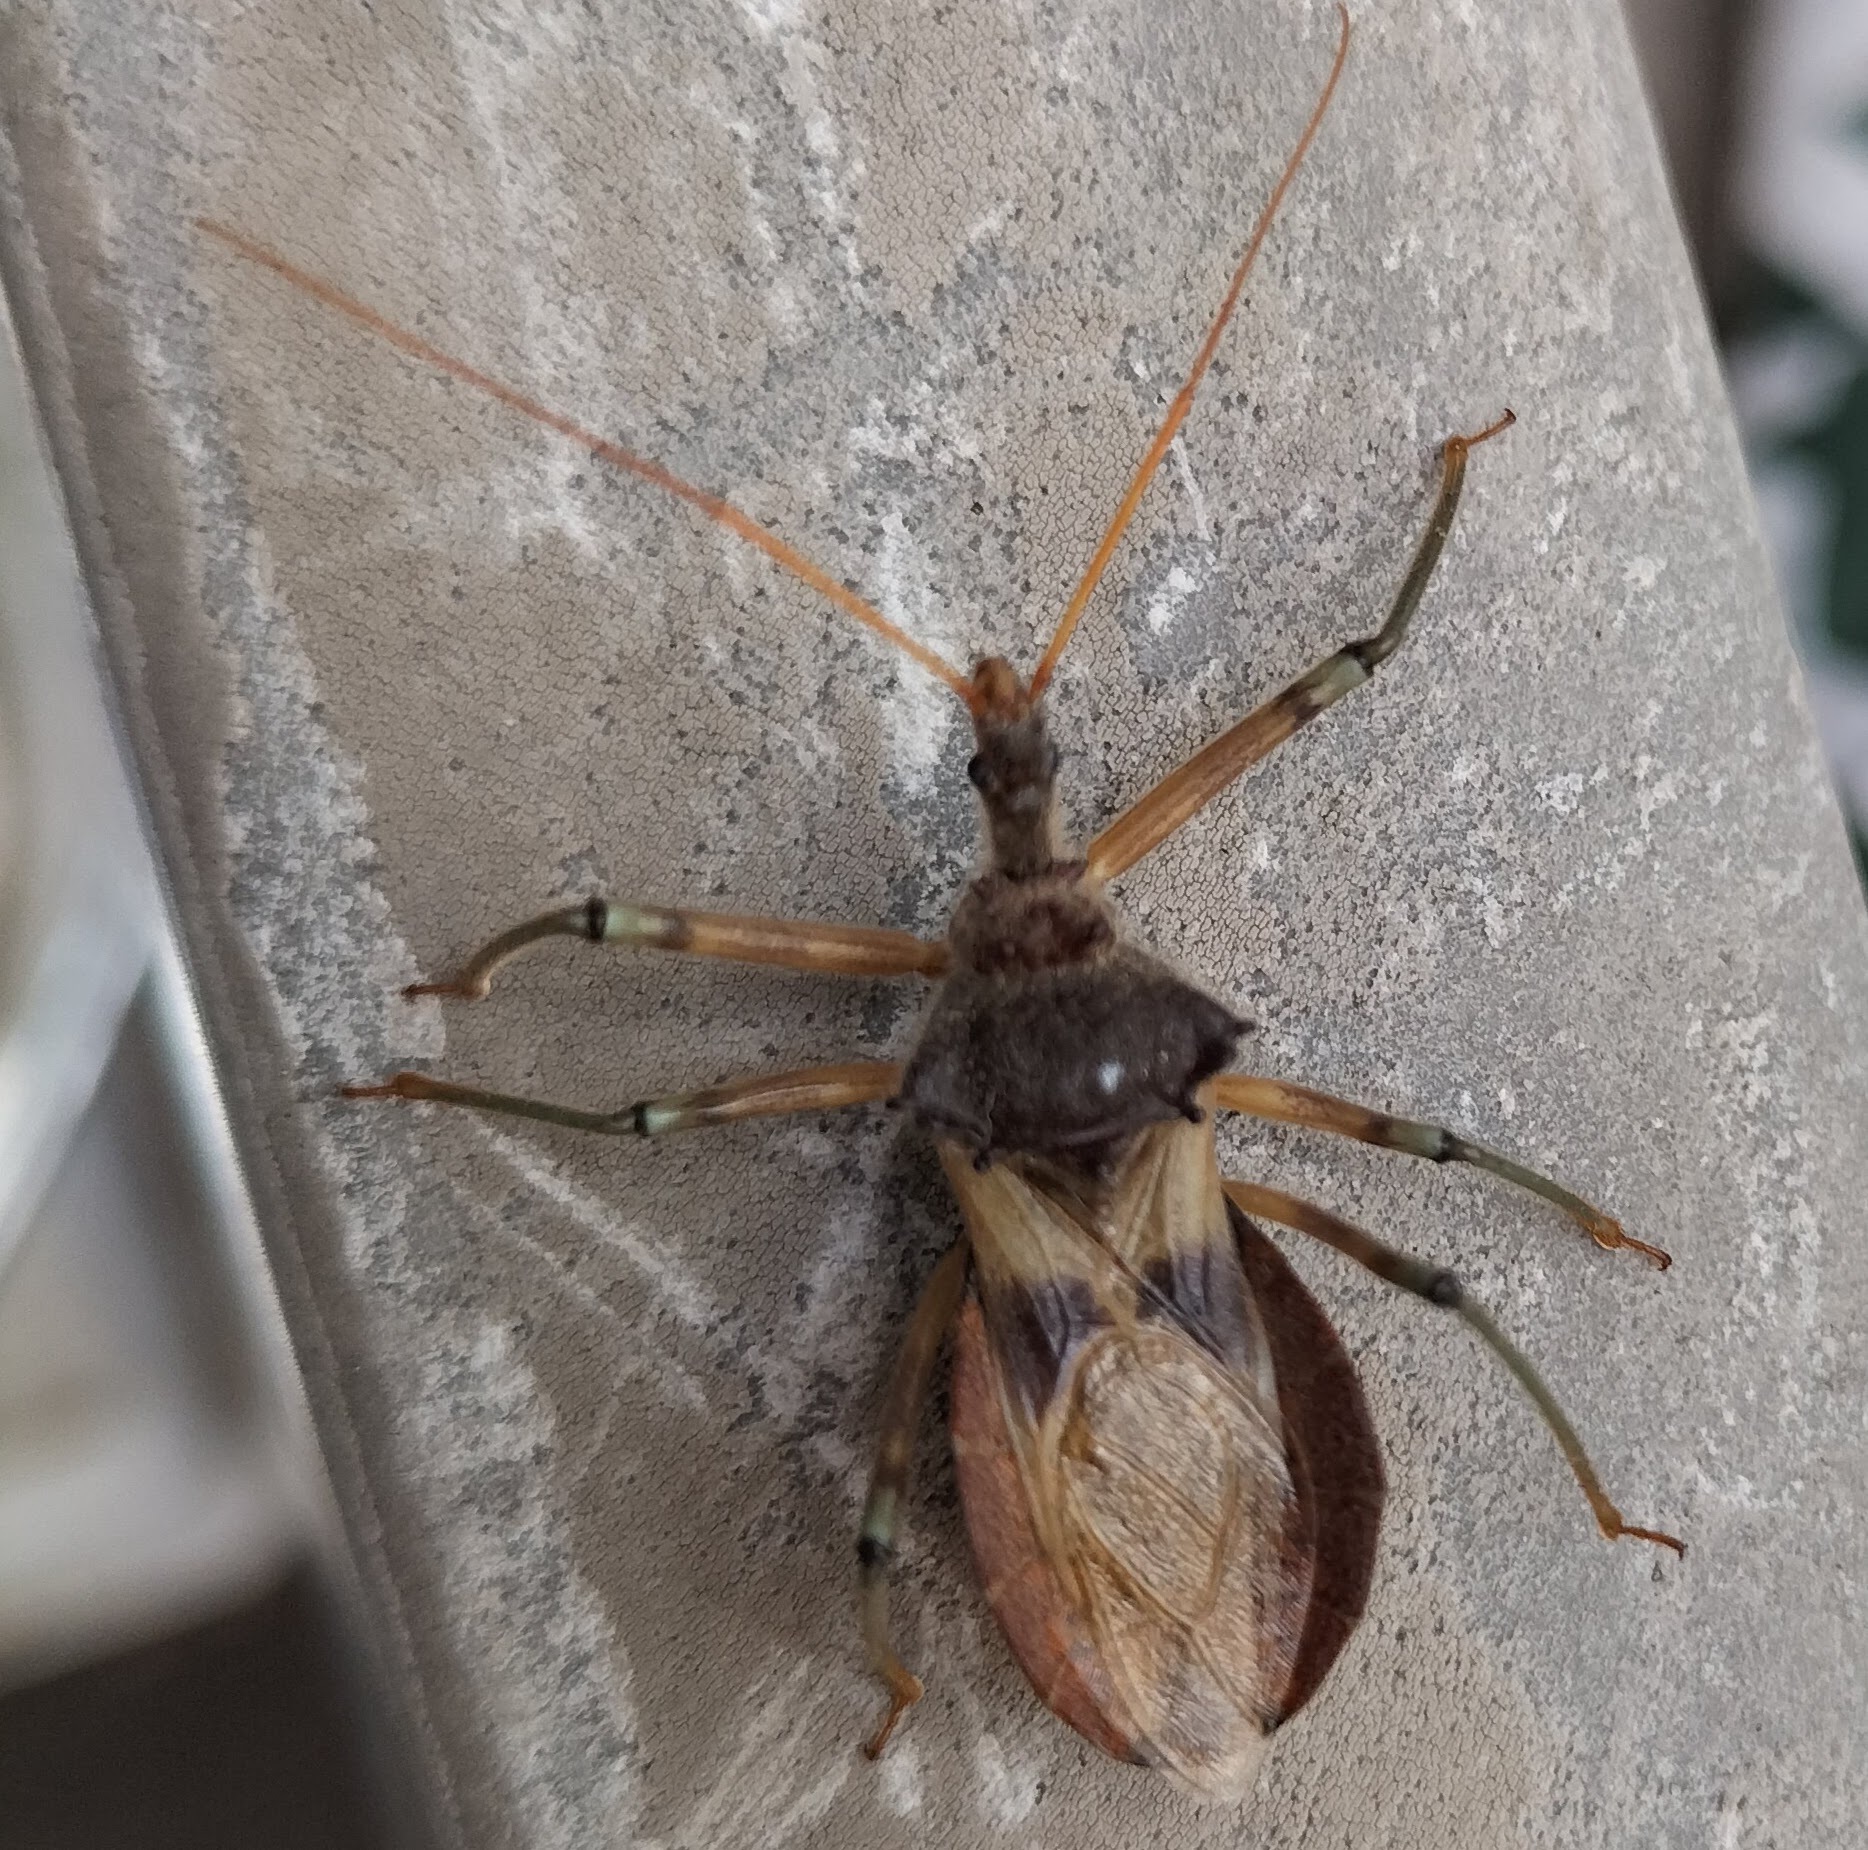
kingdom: Animalia
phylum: Arthropoda
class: Insecta
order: Hemiptera
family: Reduviidae
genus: Pristhesancus
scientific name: Pristhesancus plagipennis
